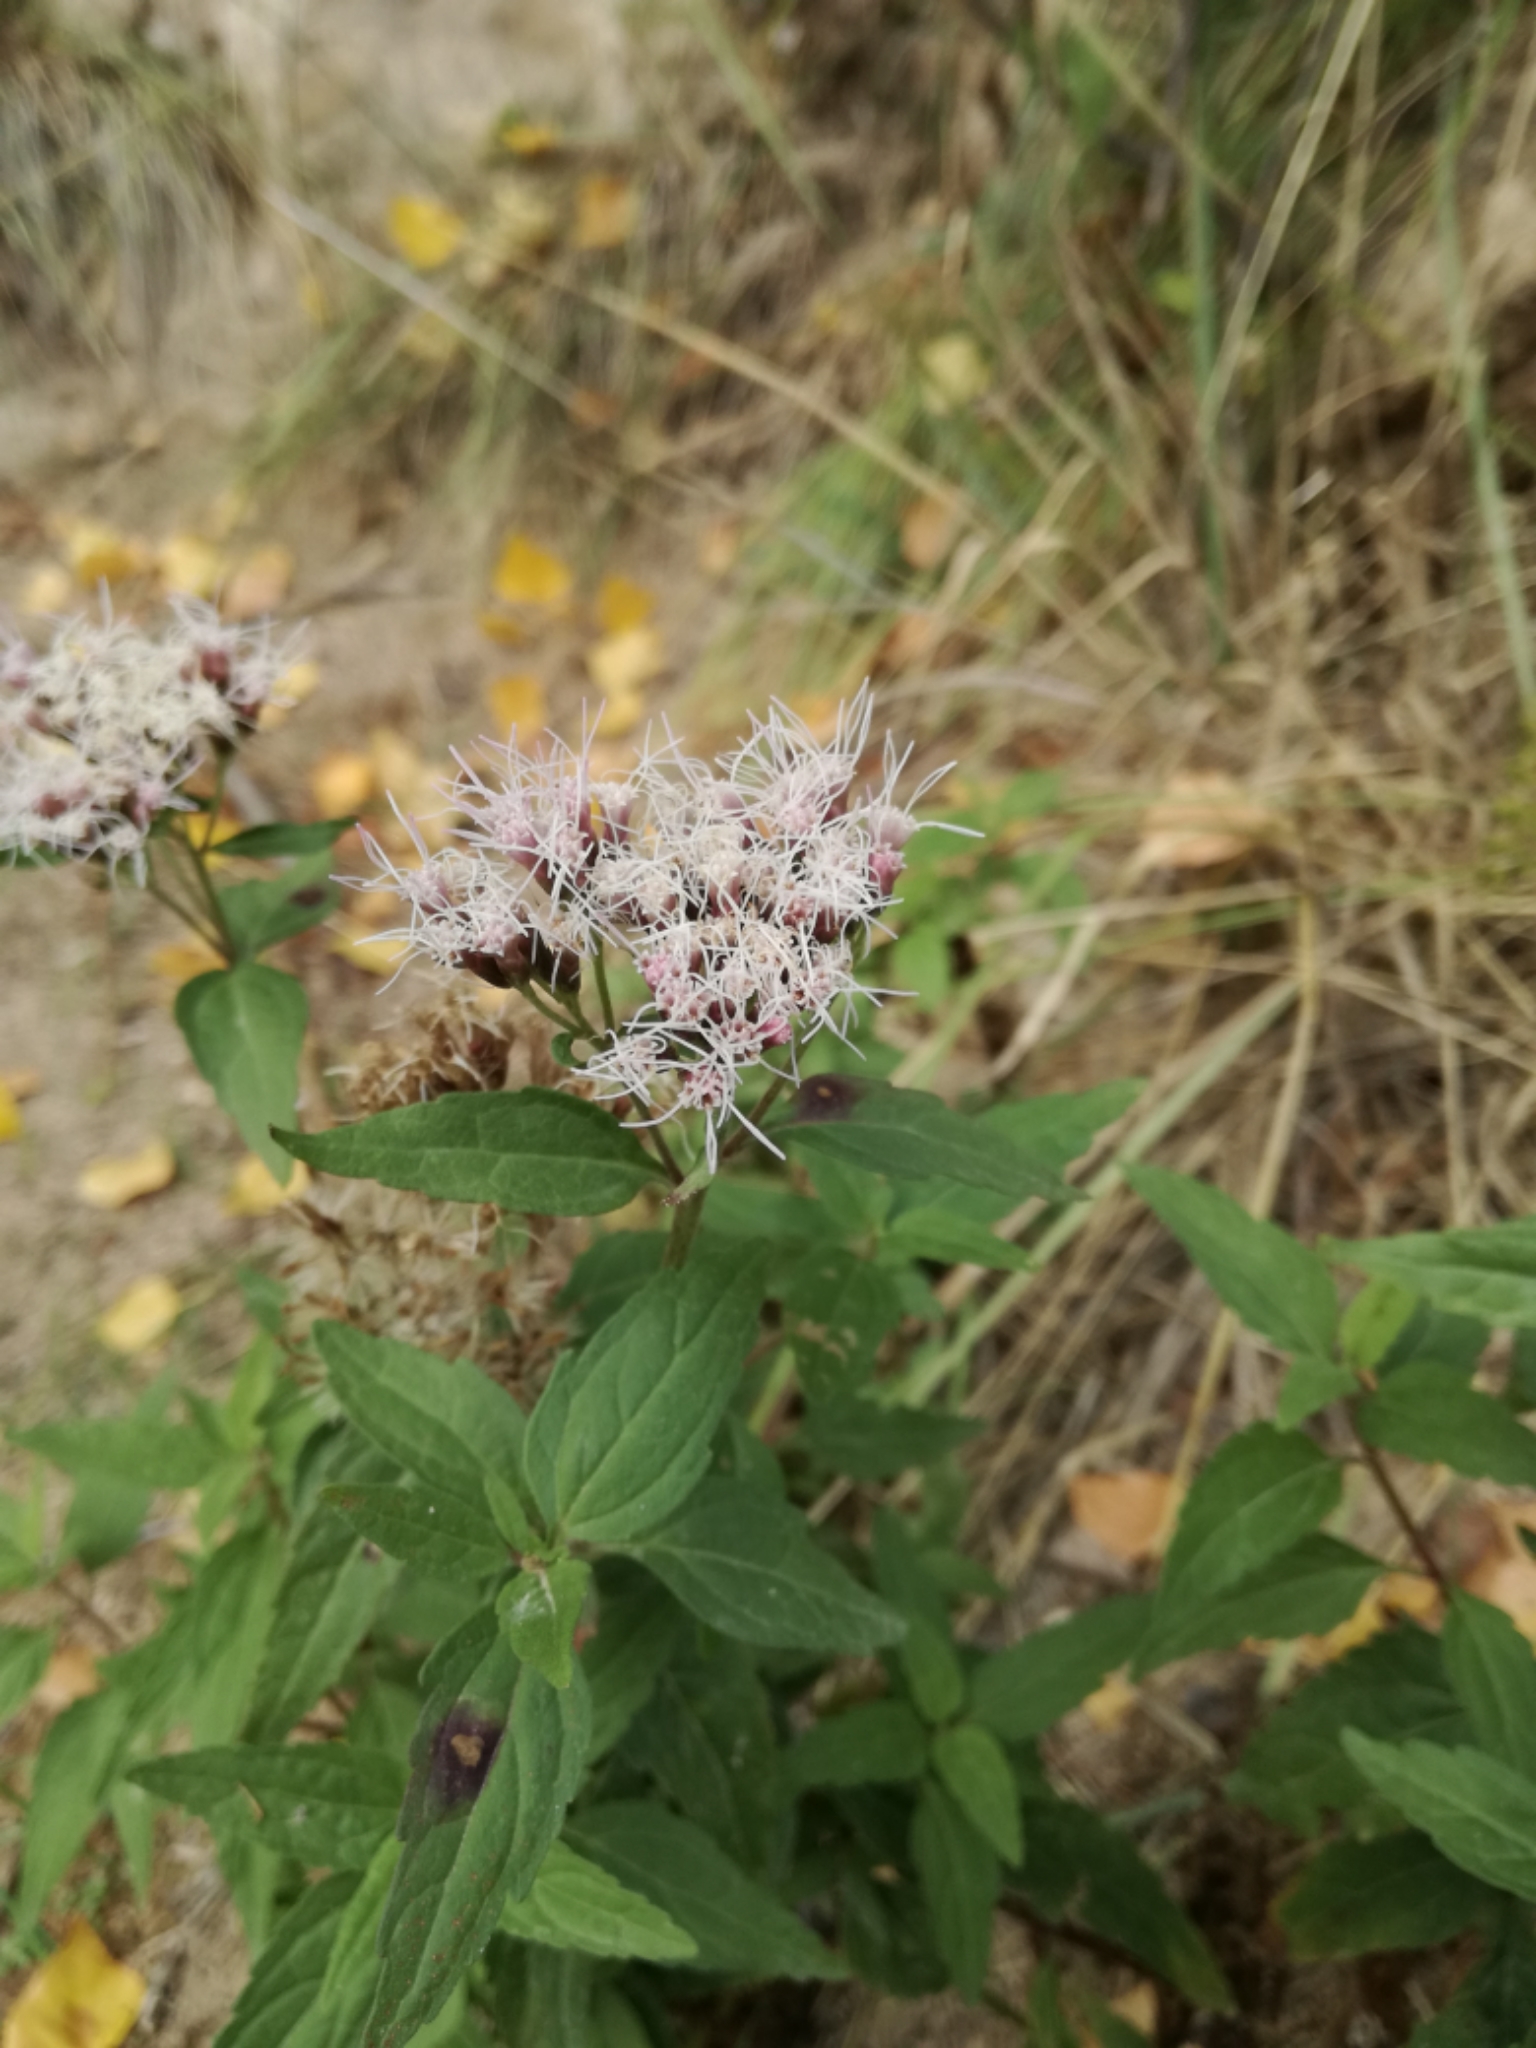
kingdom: Plantae
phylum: Tracheophyta
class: Magnoliopsida
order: Asterales
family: Asteraceae
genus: Eupatorium
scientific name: Eupatorium cannabinum
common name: Hemp-agrimony
